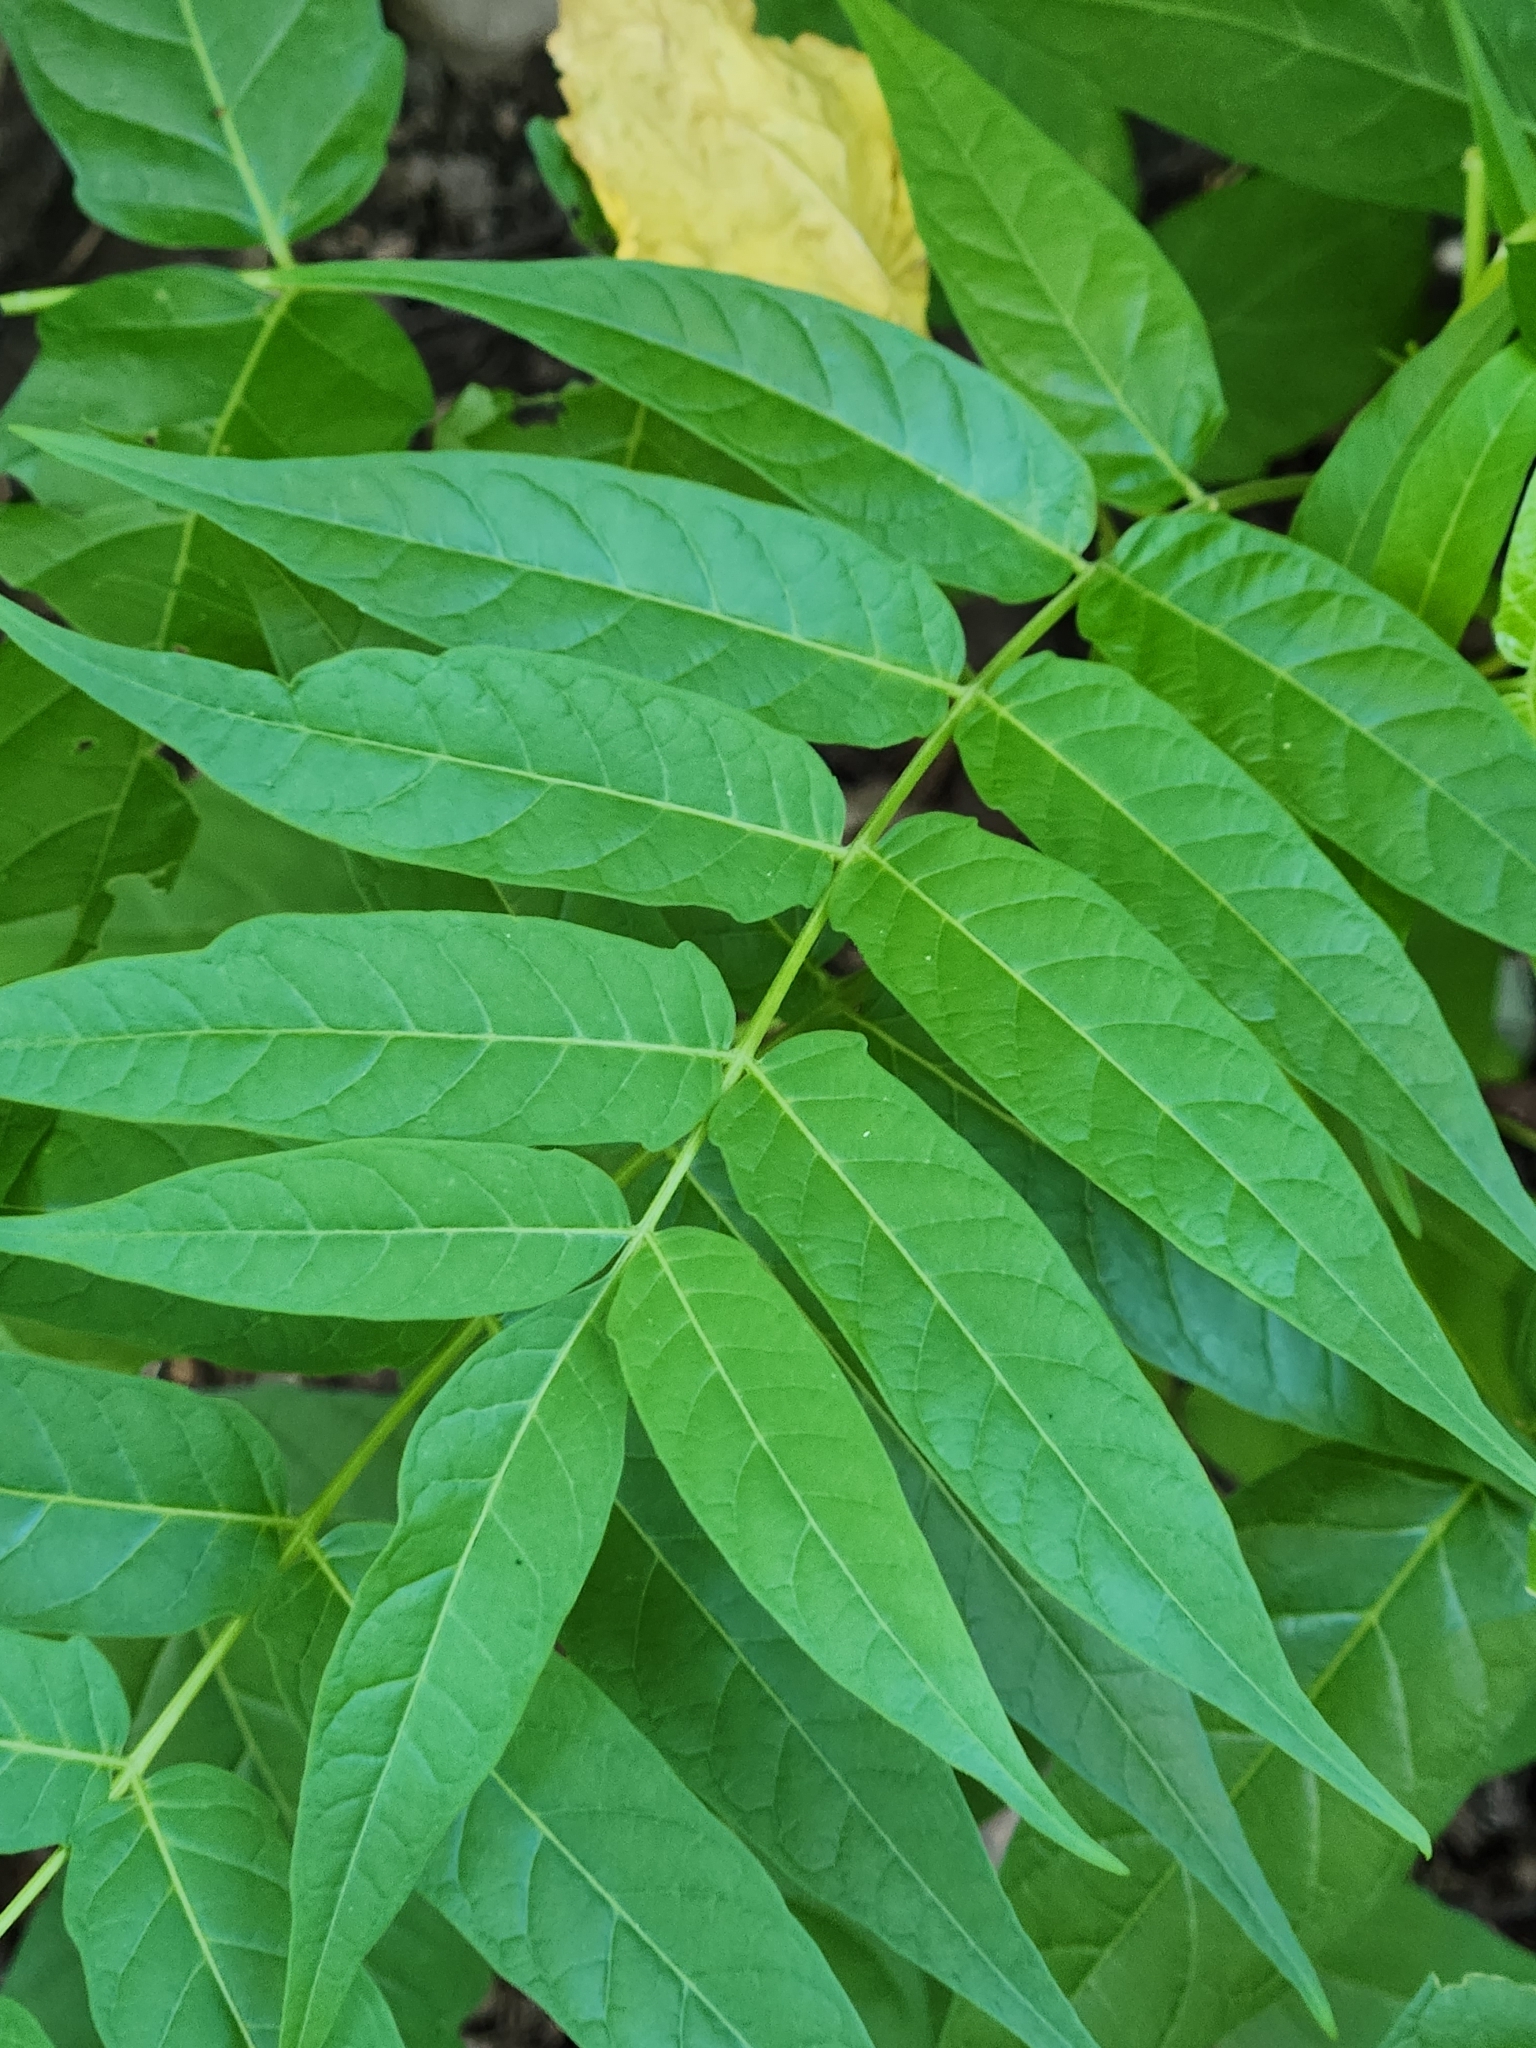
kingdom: Plantae
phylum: Tracheophyta
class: Magnoliopsida
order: Sapindales
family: Simaroubaceae
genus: Ailanthus
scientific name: Ailanthus altissima
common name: Tree-of-heaven
